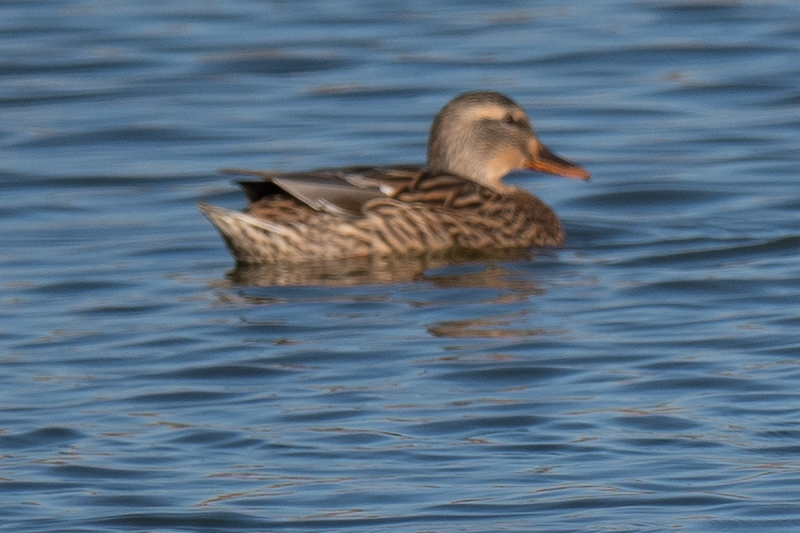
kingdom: Animalia
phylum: Chordata
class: Aves
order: Anseriformes
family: Anatidae
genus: Anas
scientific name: Anas platyrhynchos
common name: Mallard
